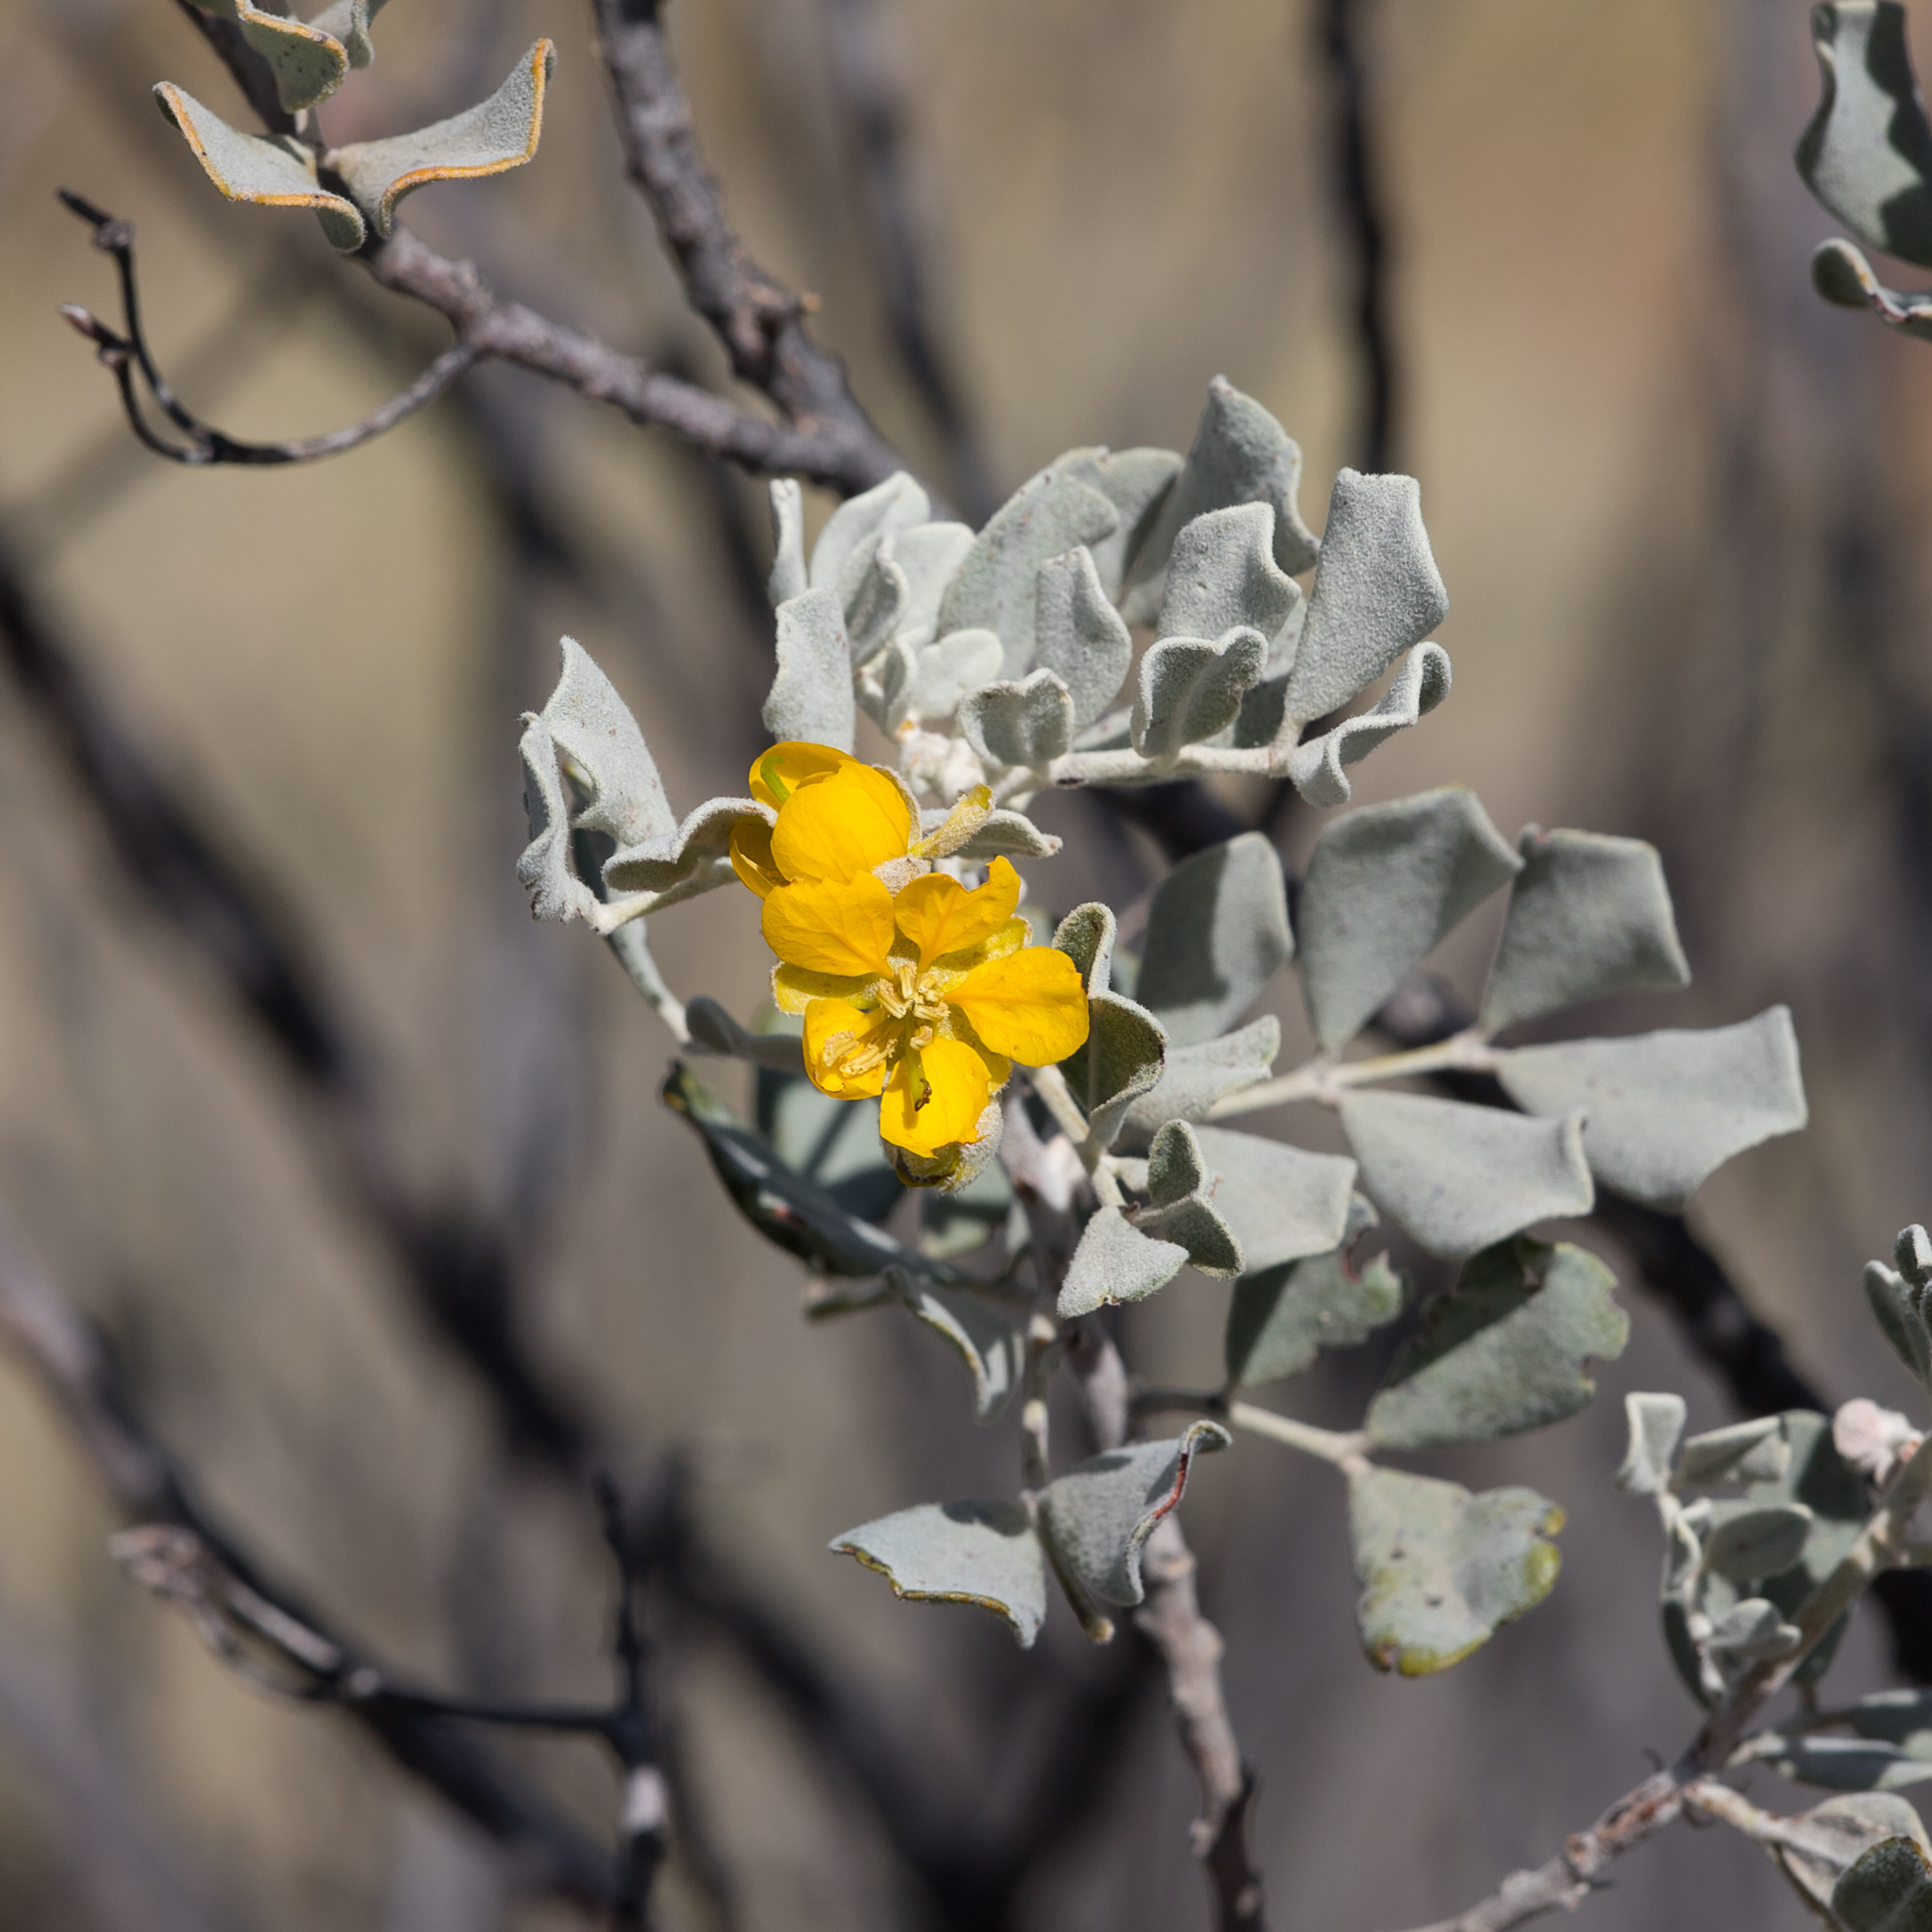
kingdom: Plantae
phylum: Tracheophyta
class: Magnoliopsida
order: Fabales
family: Fabaceae
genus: Senna
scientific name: Senna artemisioides
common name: Burnt-leaved acacia
